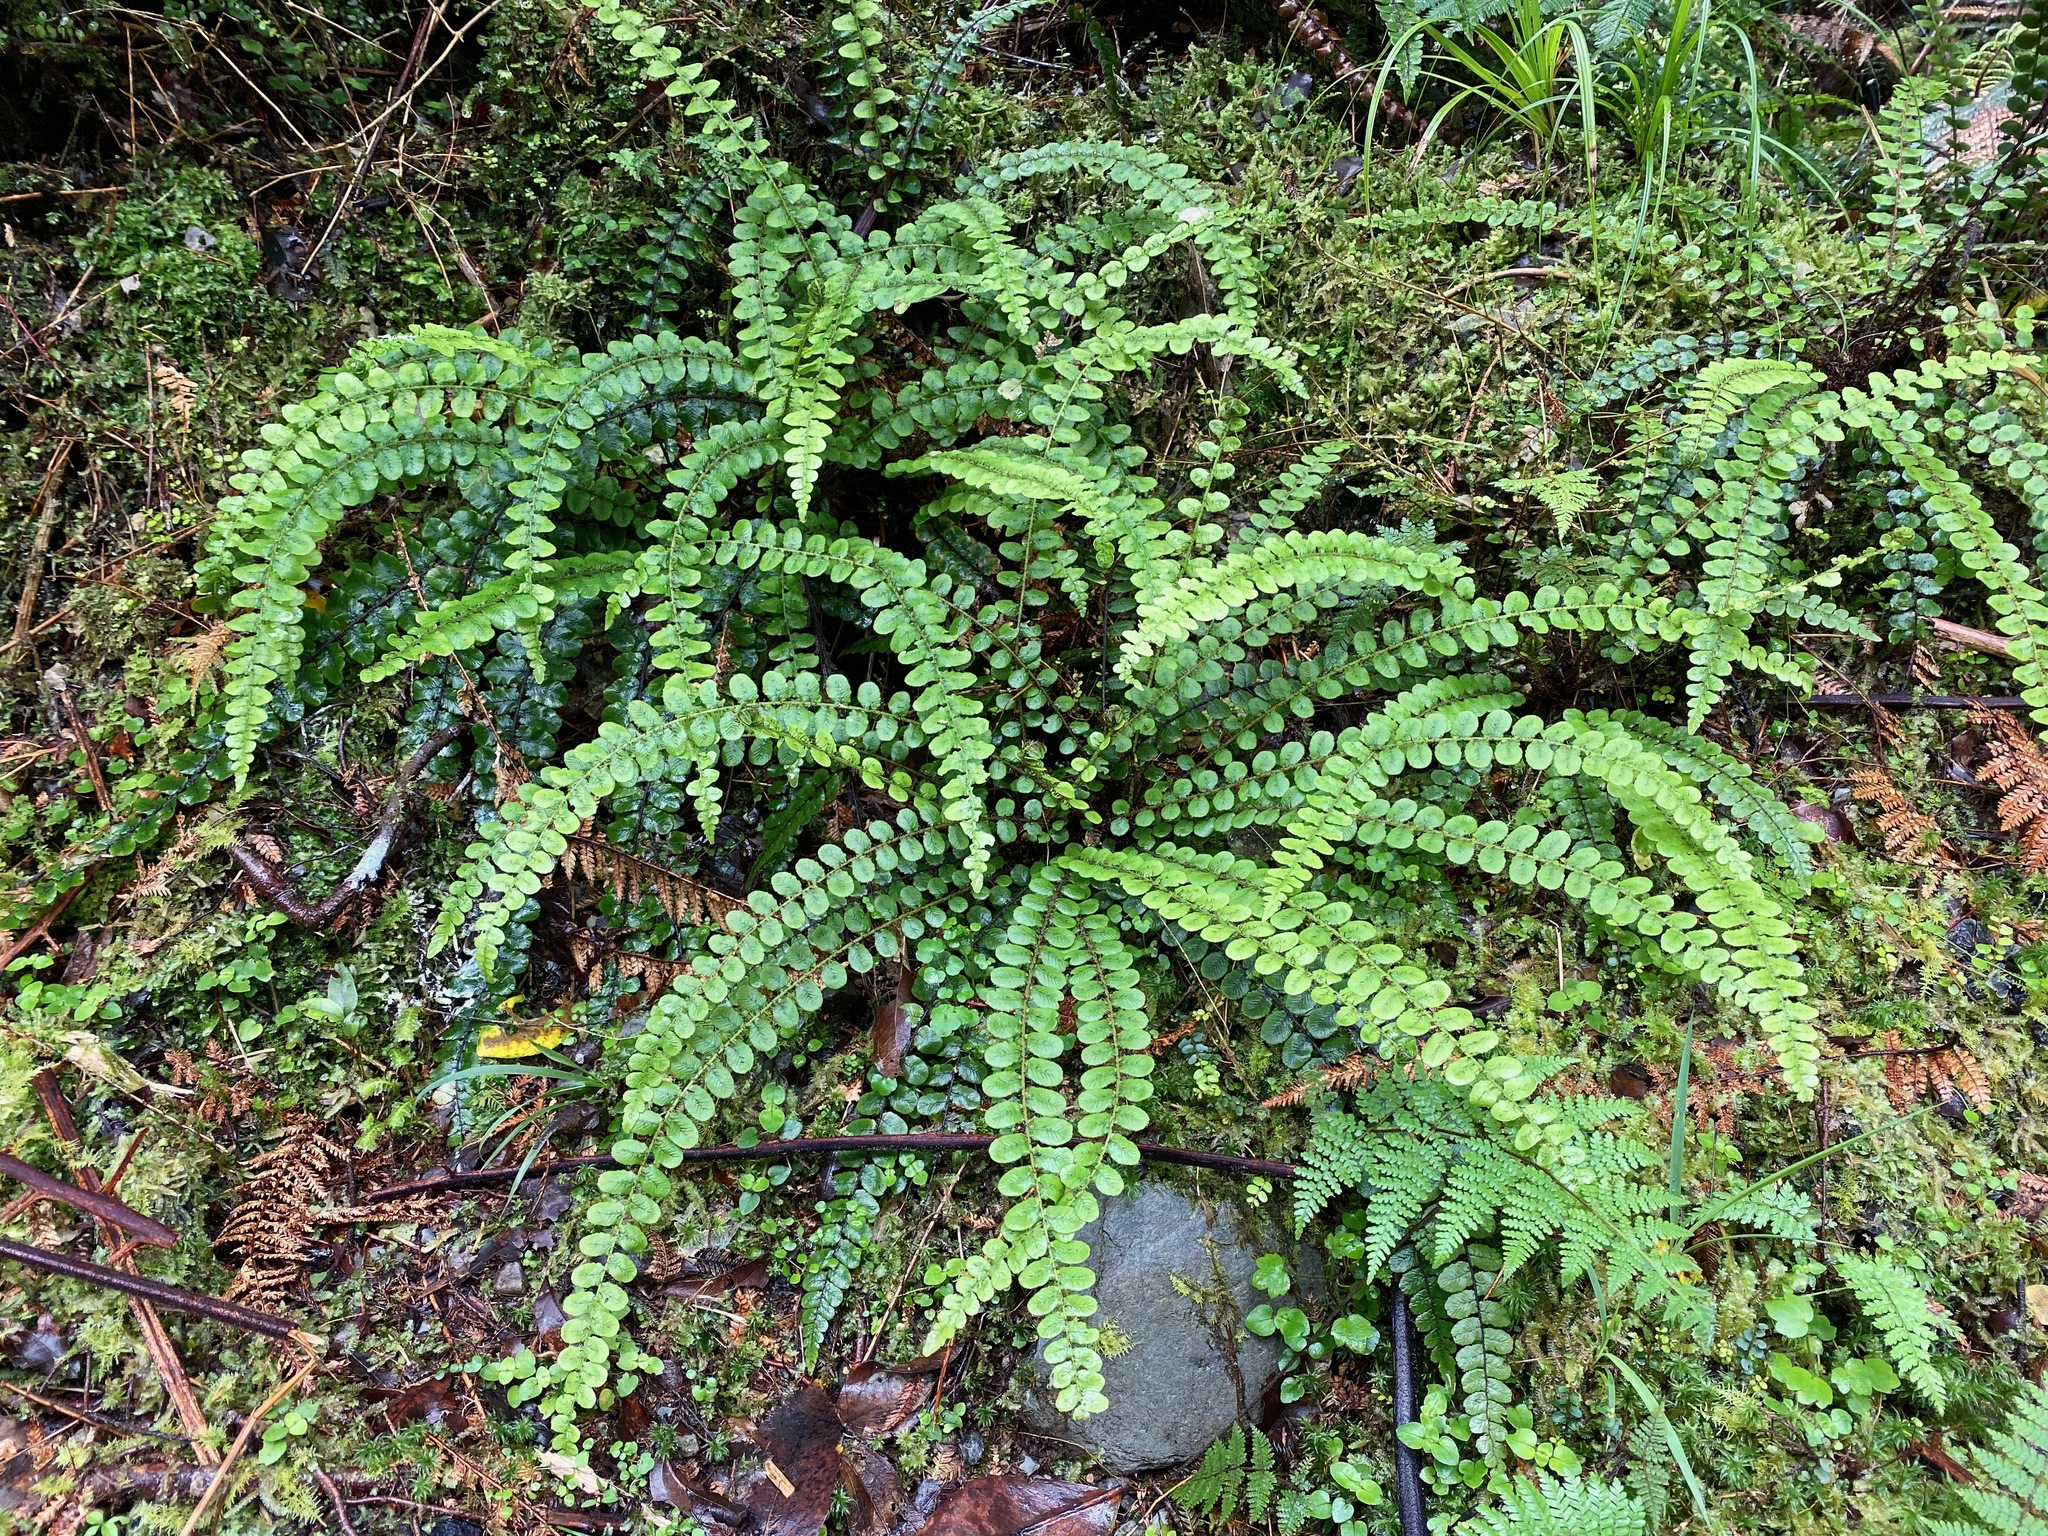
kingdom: Plantae
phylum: Tracheophyta
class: Polypodiopsida
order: Polypodiales
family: Blechnaceae
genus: Cranfillia
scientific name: Cranfillia fluviatilis
